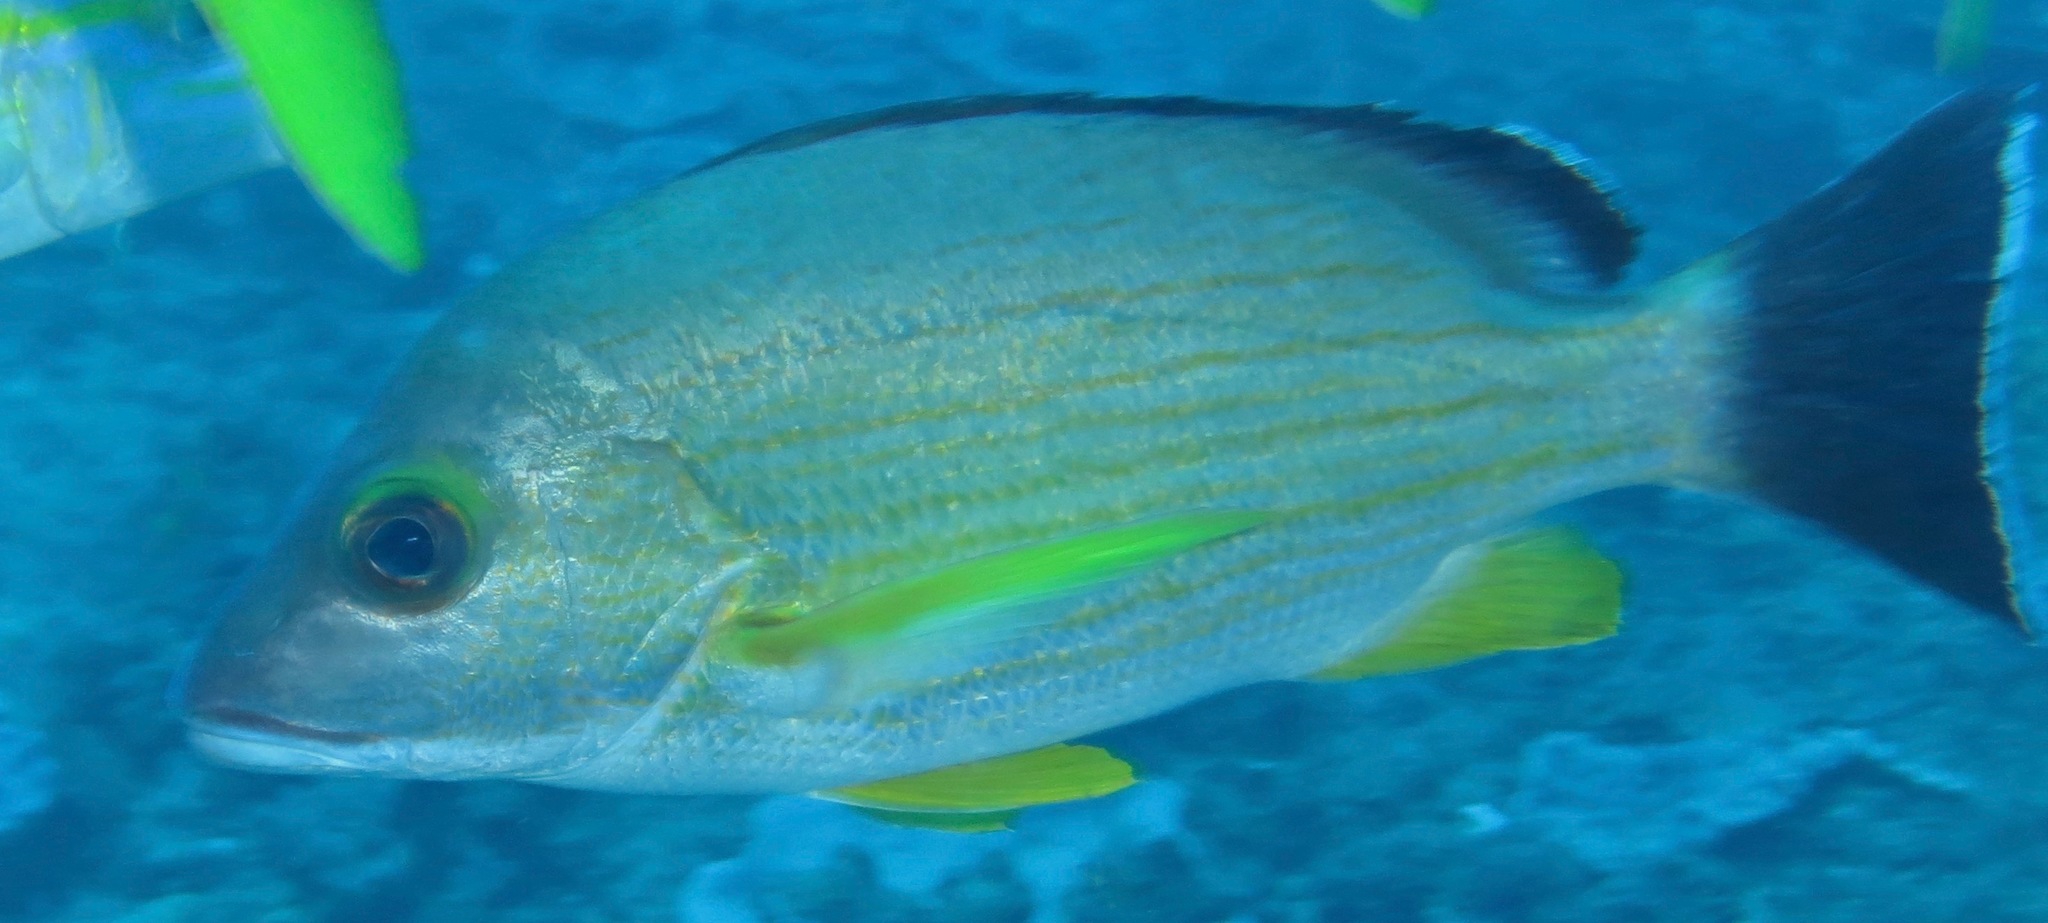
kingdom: Animalia
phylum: Chordata
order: Perciformes
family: Lutjanidae
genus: Lutjanus
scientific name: Lutjanus fulvus
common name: Blacktail snapper
